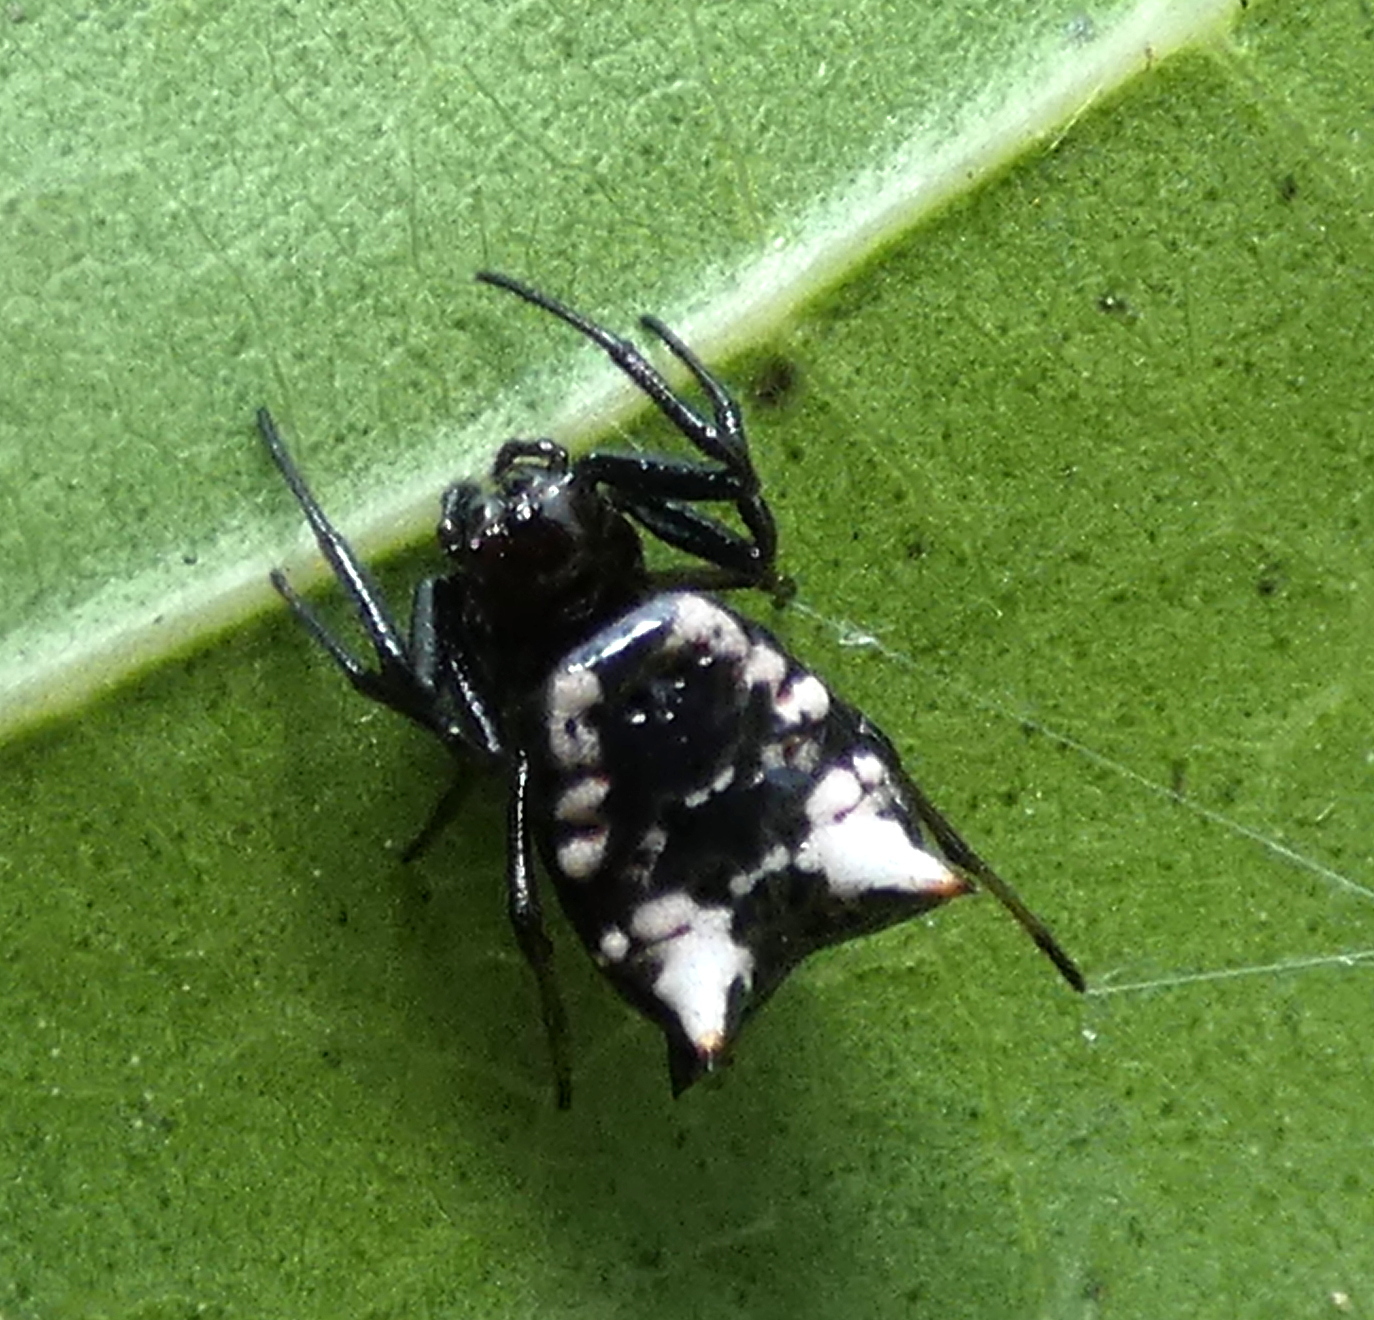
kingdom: Animalia
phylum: Arthropoda
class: Arachnida
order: Araneae
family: Araneidae
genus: Micrathena
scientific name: Micrathena patruelis
